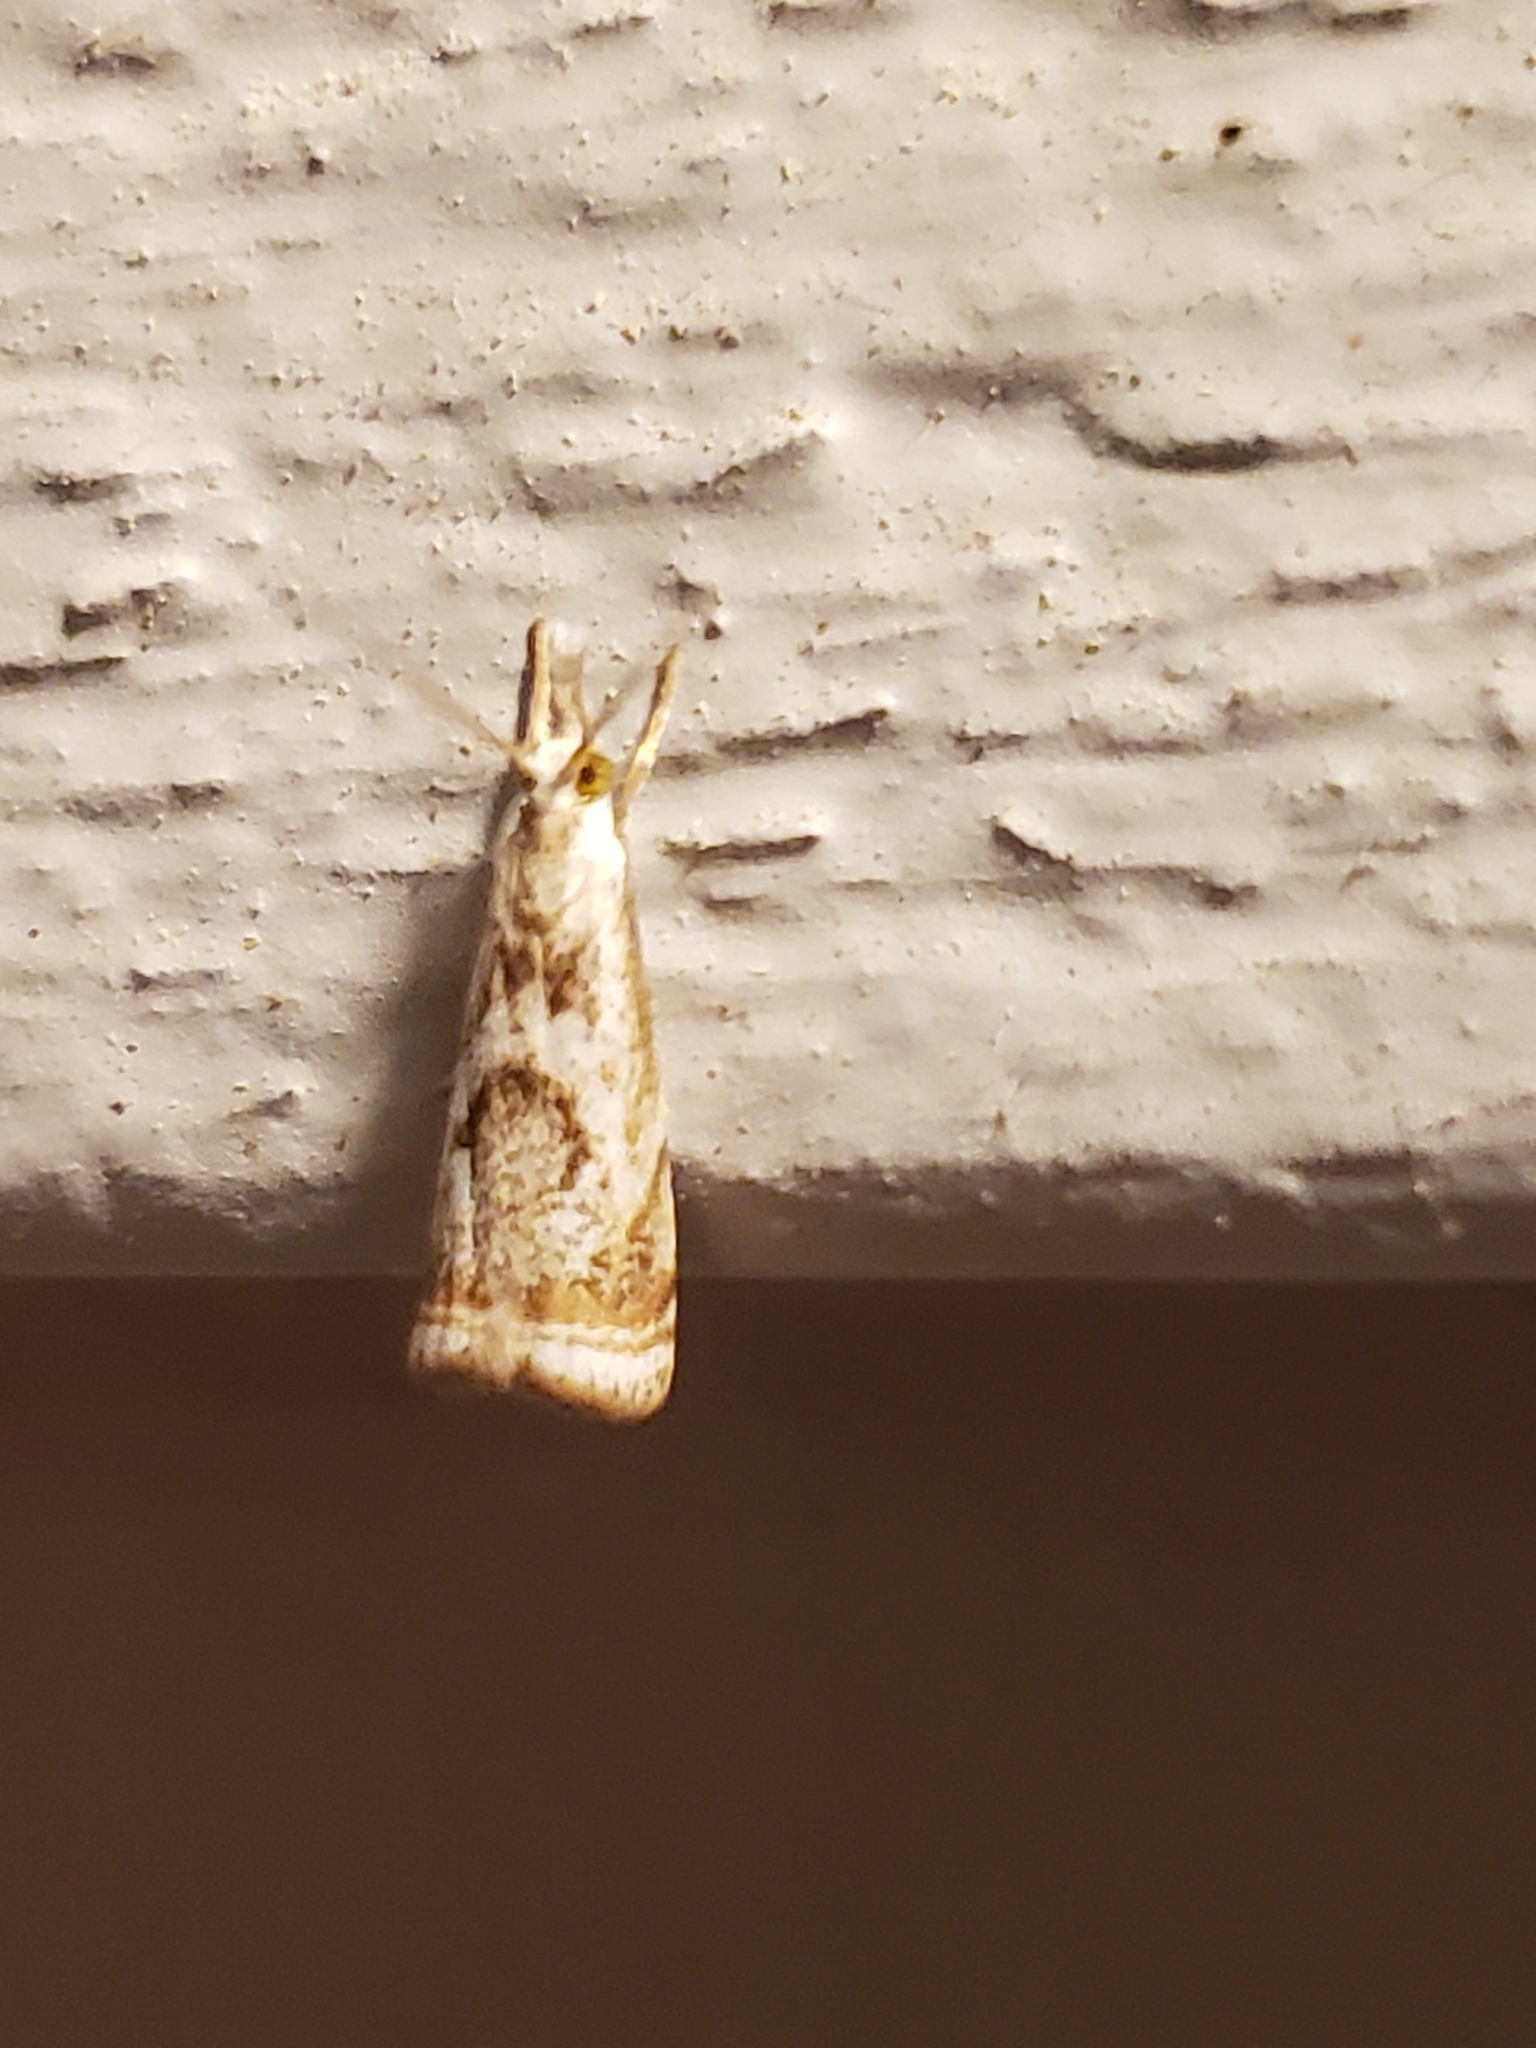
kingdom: Animalia
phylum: Arthropoda
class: Insecta
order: Lepidoptera
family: Crambidae
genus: Microcrambus
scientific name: Microcrambus elegans
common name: Elegant grass-veneer
